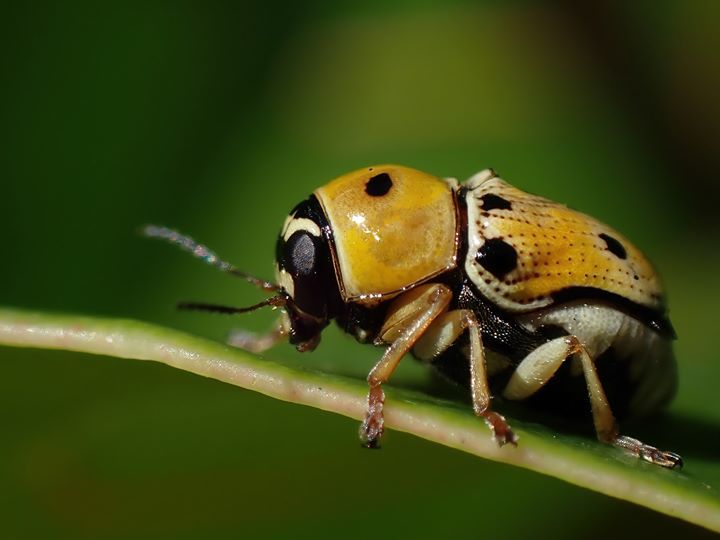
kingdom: Animalia
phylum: Arthropoda
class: Insecta
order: Coleoptera
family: Chrysomelidae
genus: Griburius
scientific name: Griburius larvatus
